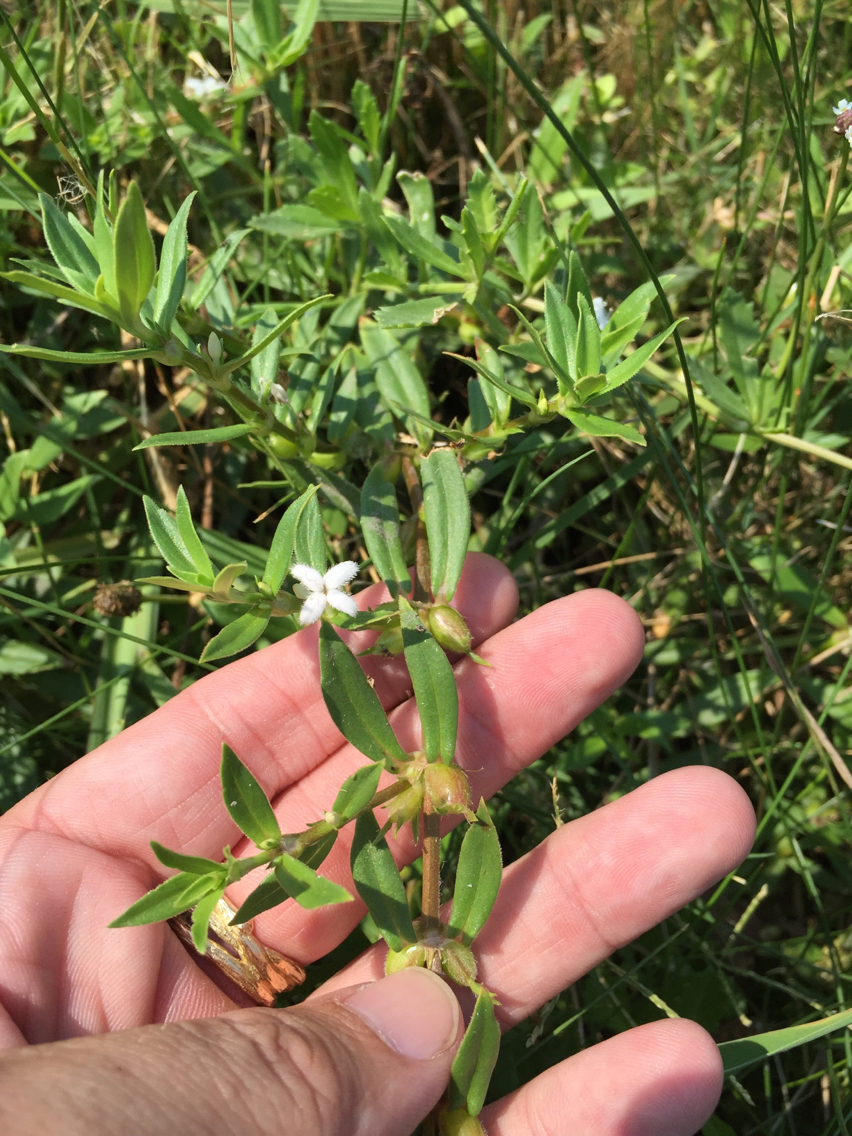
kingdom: Plantae
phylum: Tracheophyta
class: Magnoliopsida
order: Gentianales
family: Rubiaceae
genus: Diodia
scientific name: Diodia virginiana
